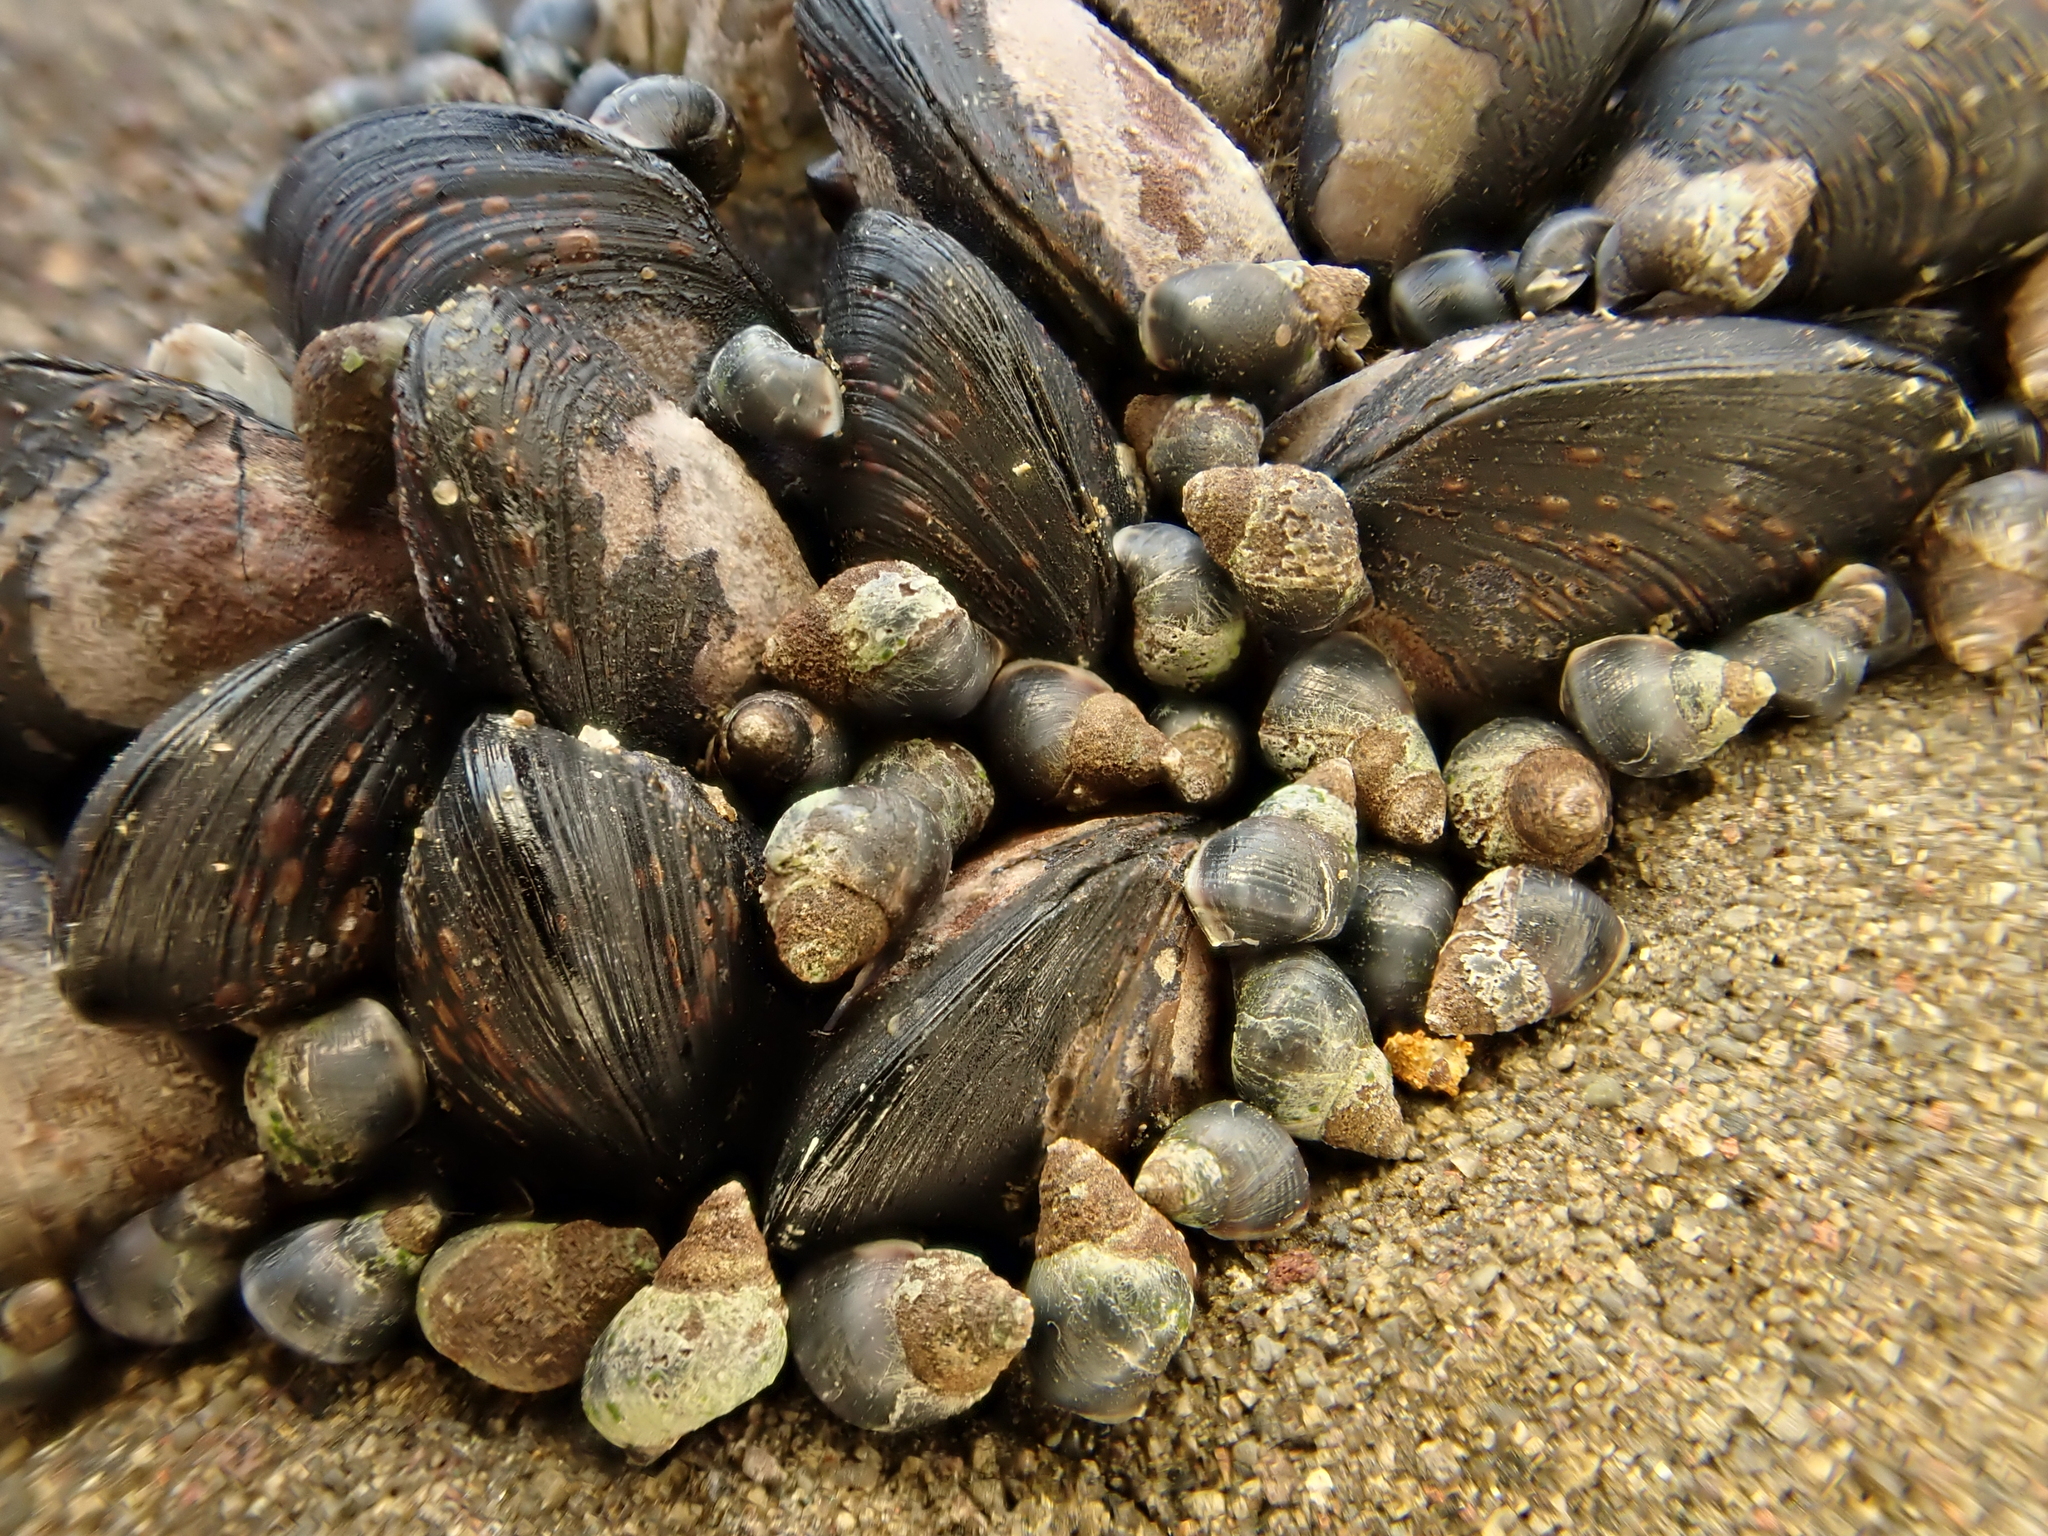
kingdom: Animalia
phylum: Mollusca
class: Gastropoda
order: Littorinimorpha
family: Littorinidae
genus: Austrolittorina
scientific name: Austrolittorina antipodum
